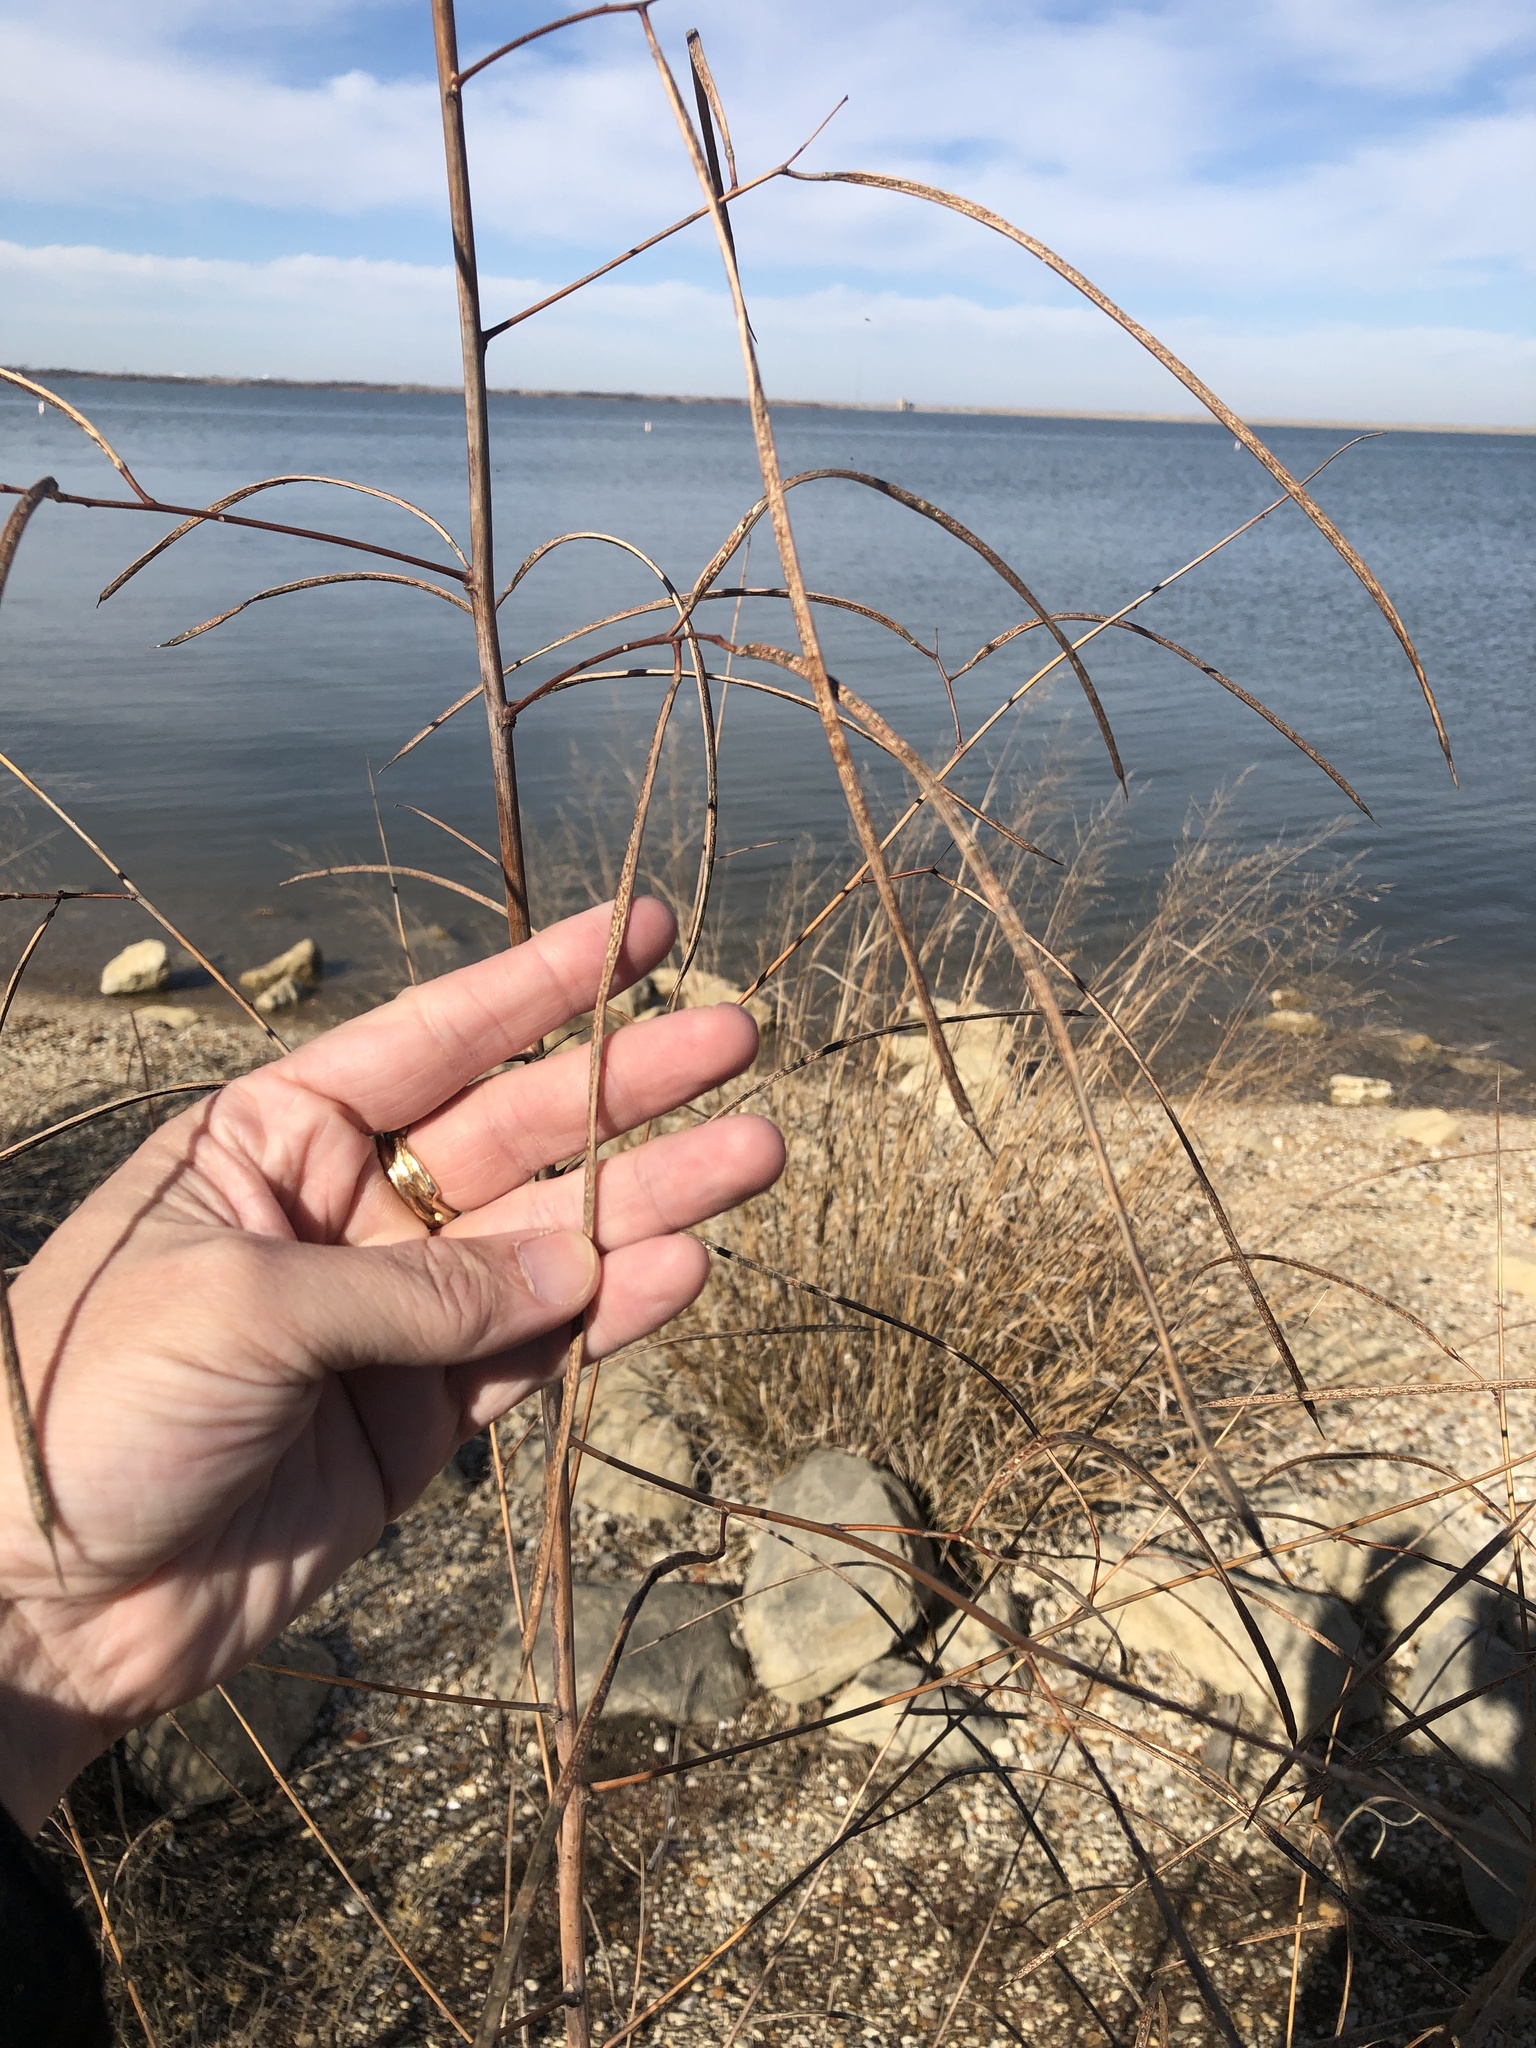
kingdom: Plantae
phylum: Tracheophyta
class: Magnoliopsida
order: Fabales
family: Fabaceae
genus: Sesbania
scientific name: Sesbania herbacea
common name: Bigpod sesbania
